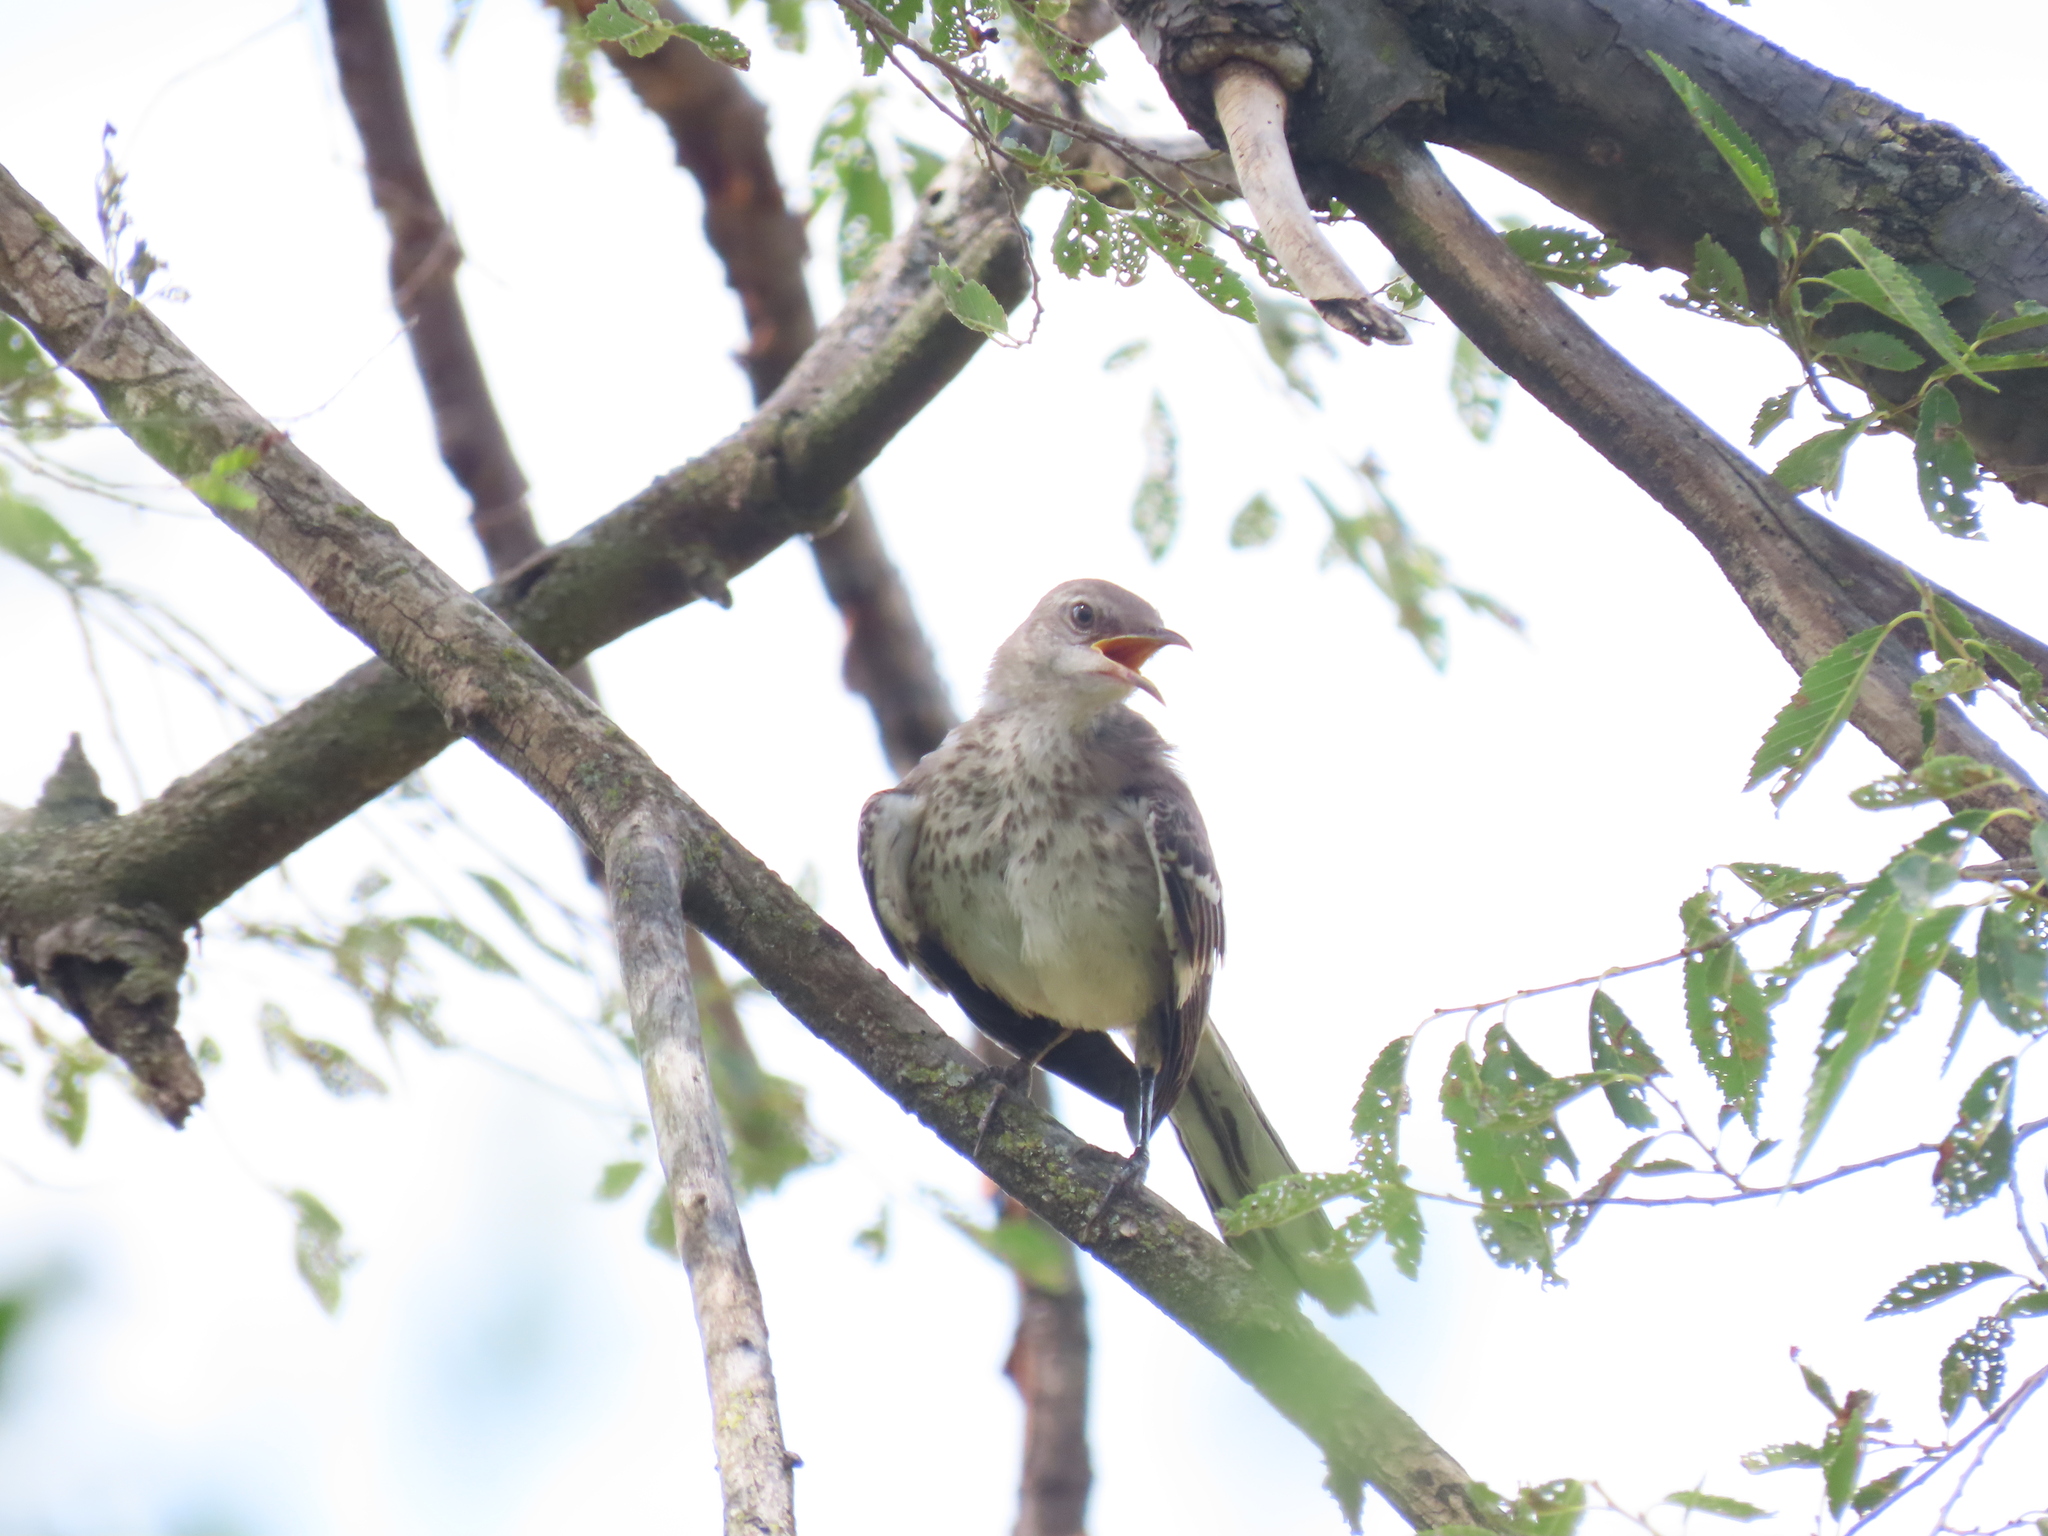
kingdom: Animalia
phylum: Chordata
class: Aves
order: Passeriformes
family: Mimidae
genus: Mimus
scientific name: Mimus polyglottos
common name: Northern mockingbird
